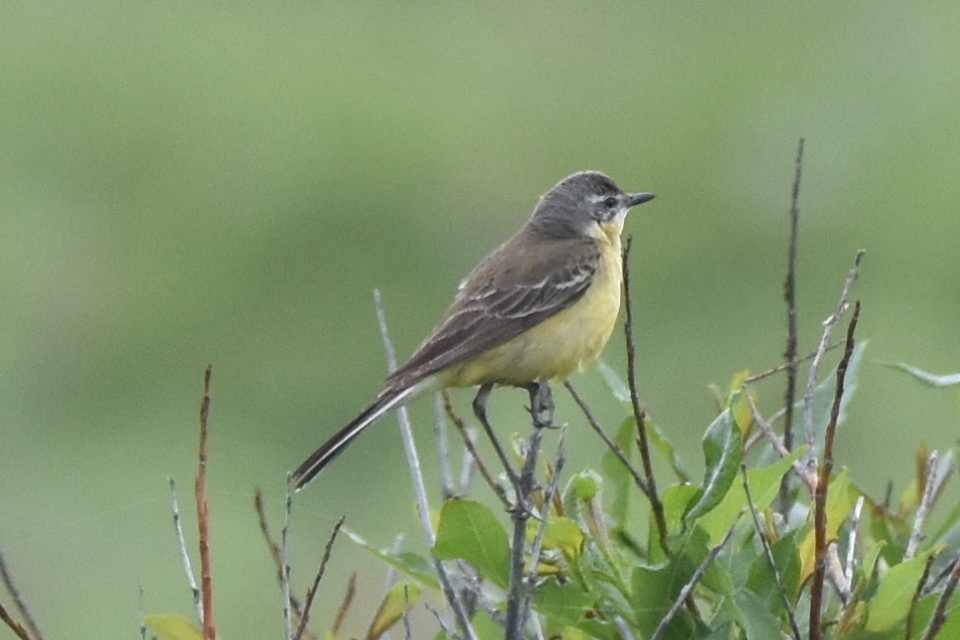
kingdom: Animalia
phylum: Chordata
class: Aves
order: Passeriformes
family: Motacillidae
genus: Motacilla
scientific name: Motacilla tschutschensis
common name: Eastern yellow wagtail
